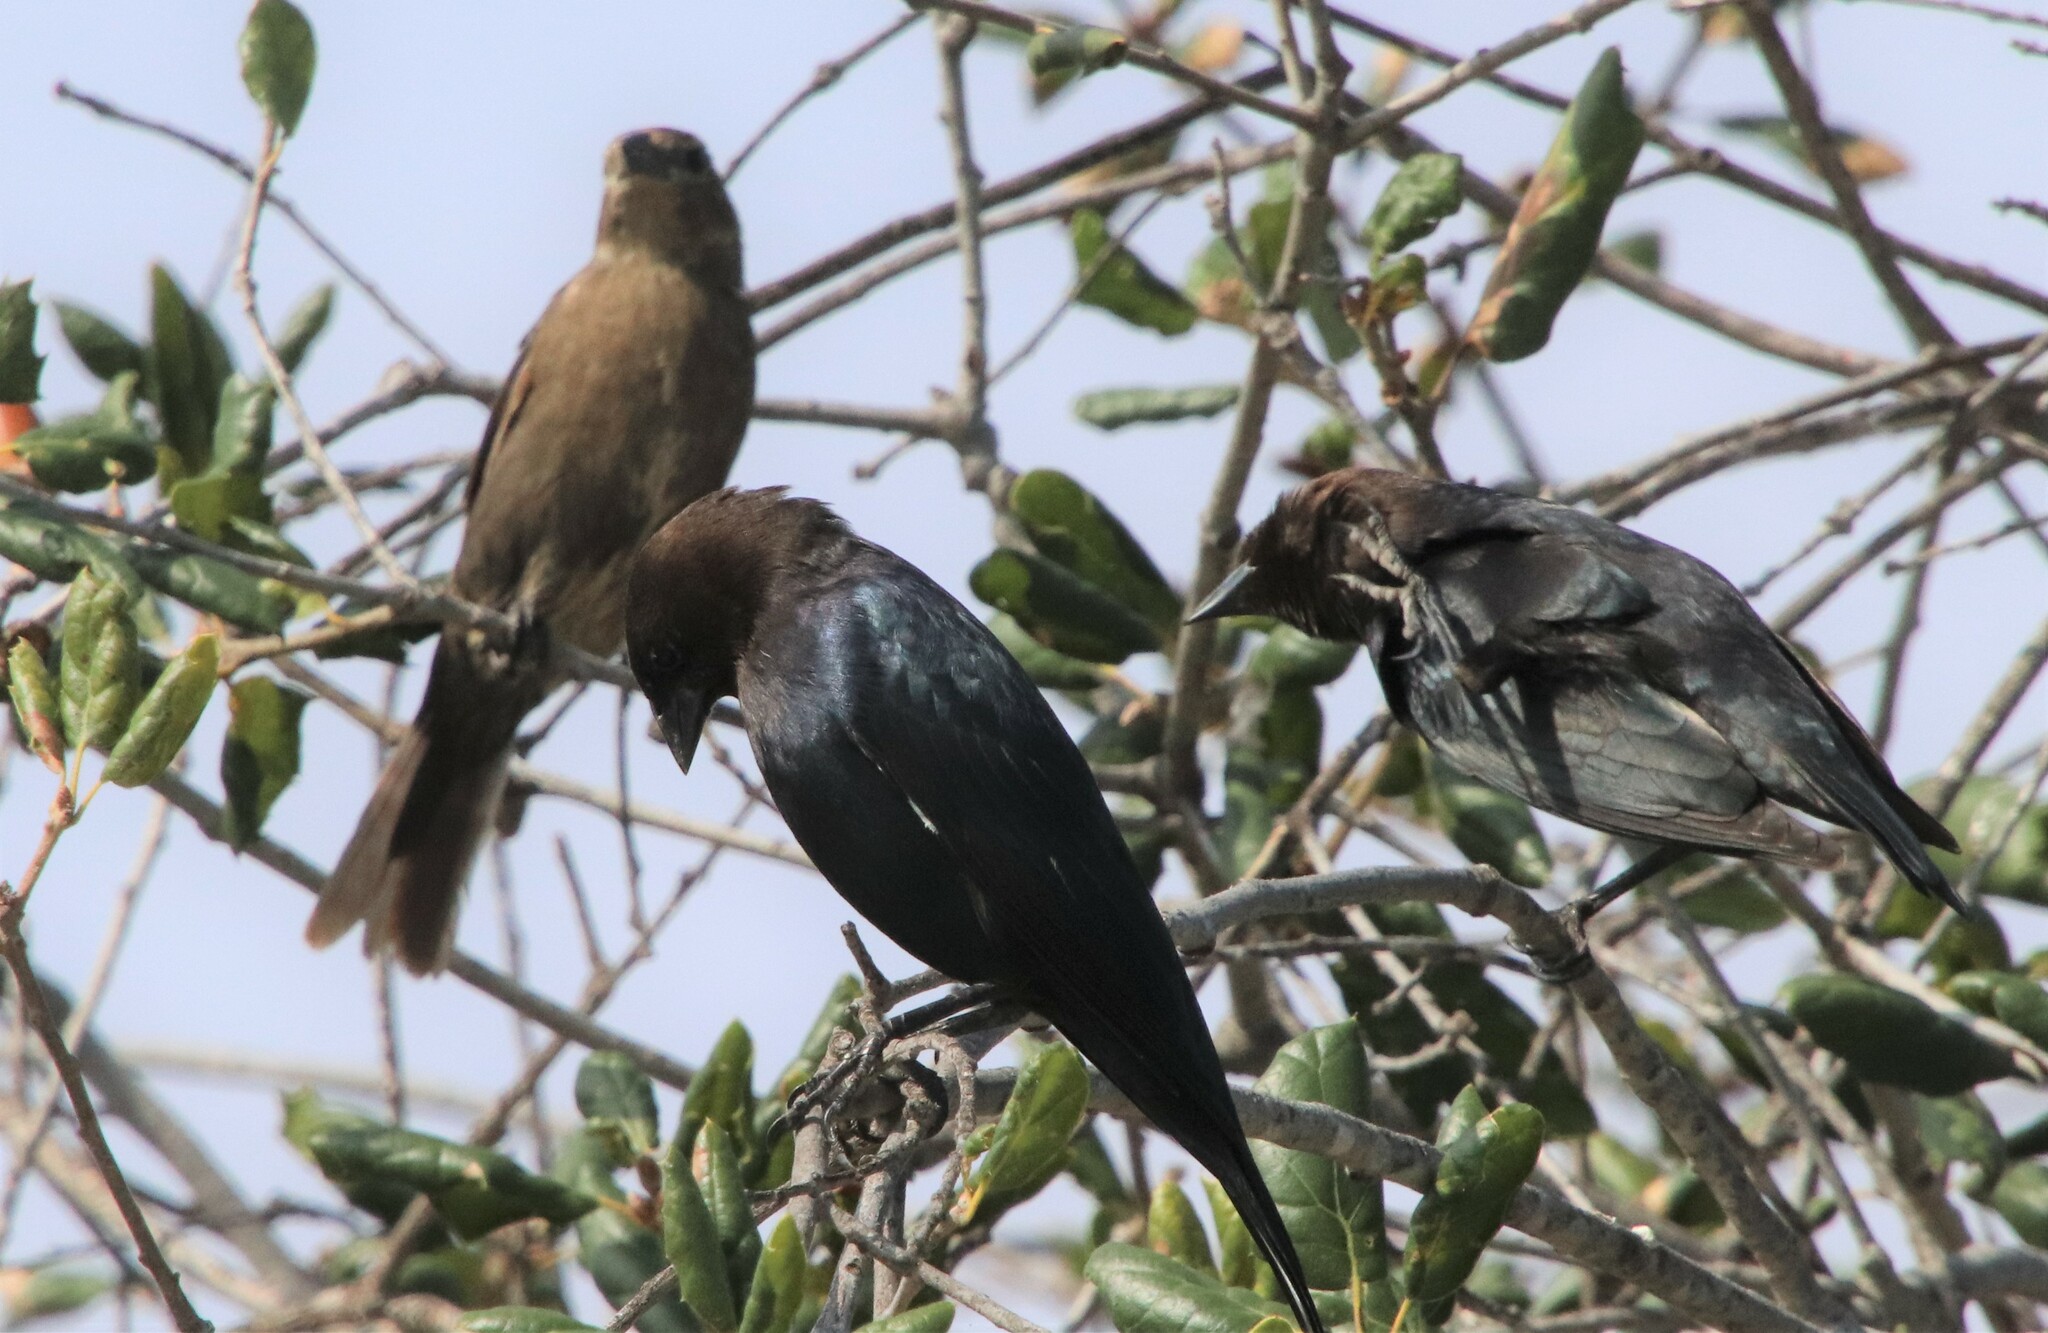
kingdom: Animalia
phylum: Chordata
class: Aves
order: Passeriformes
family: Icteridae
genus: Molothrus
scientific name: Molothrus ater
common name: Brown-headed cowbird
